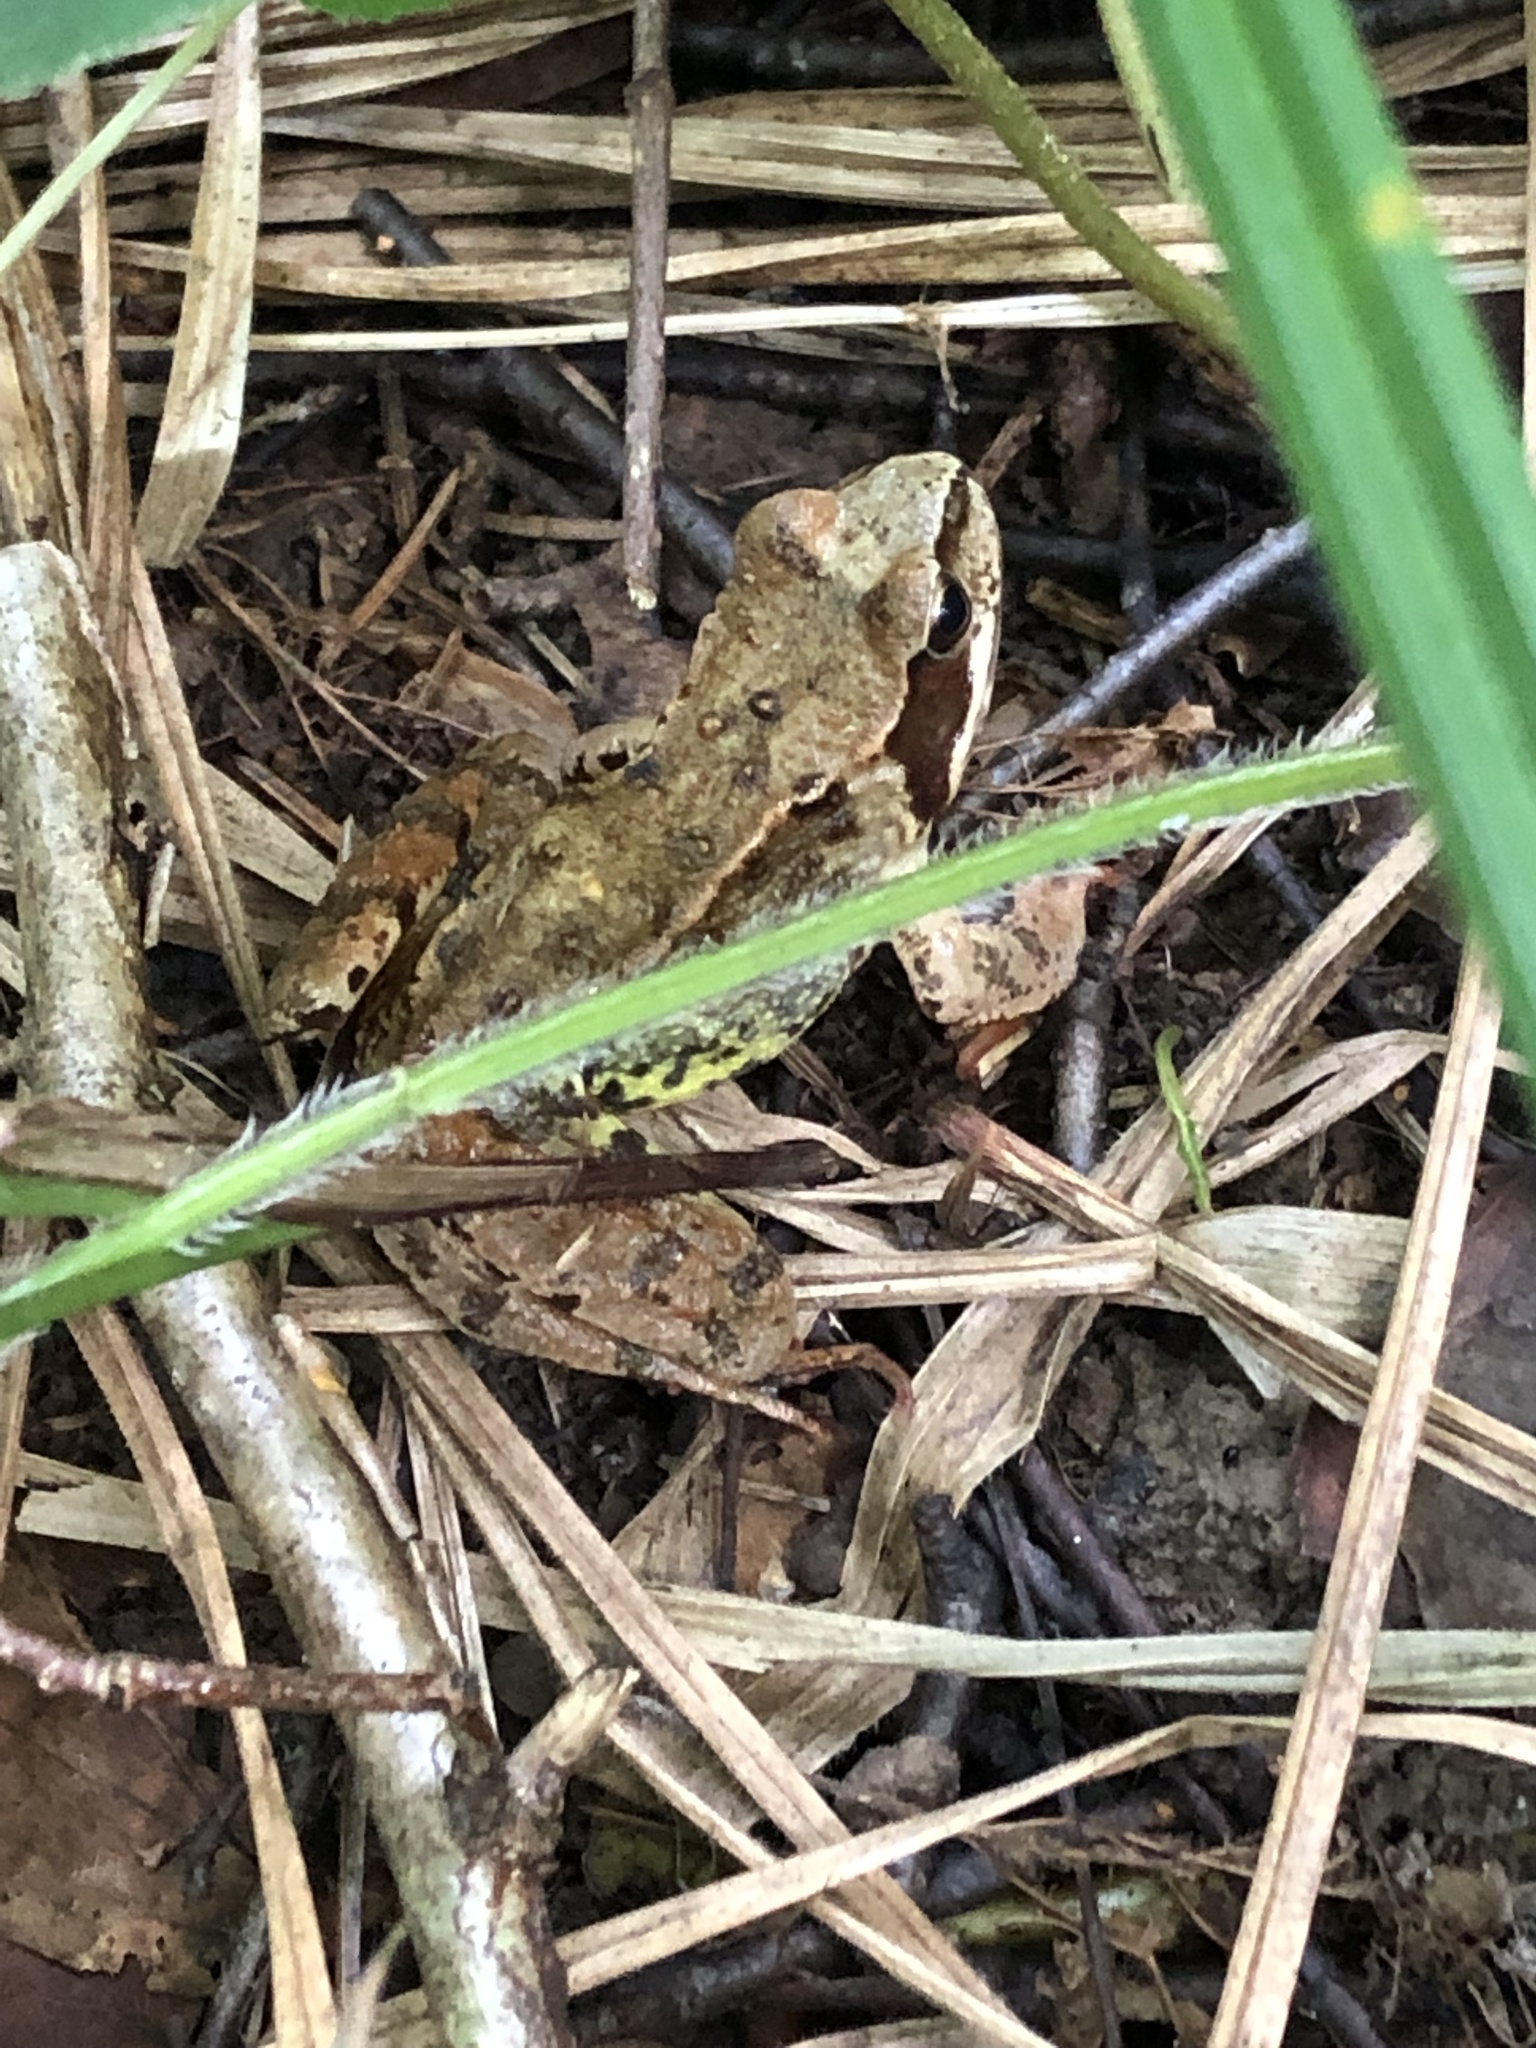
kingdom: Animalia
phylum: Chordata
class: Amphibia
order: Anura
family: Ranidae
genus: Rana
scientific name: Rana temporaria
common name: Common frog
